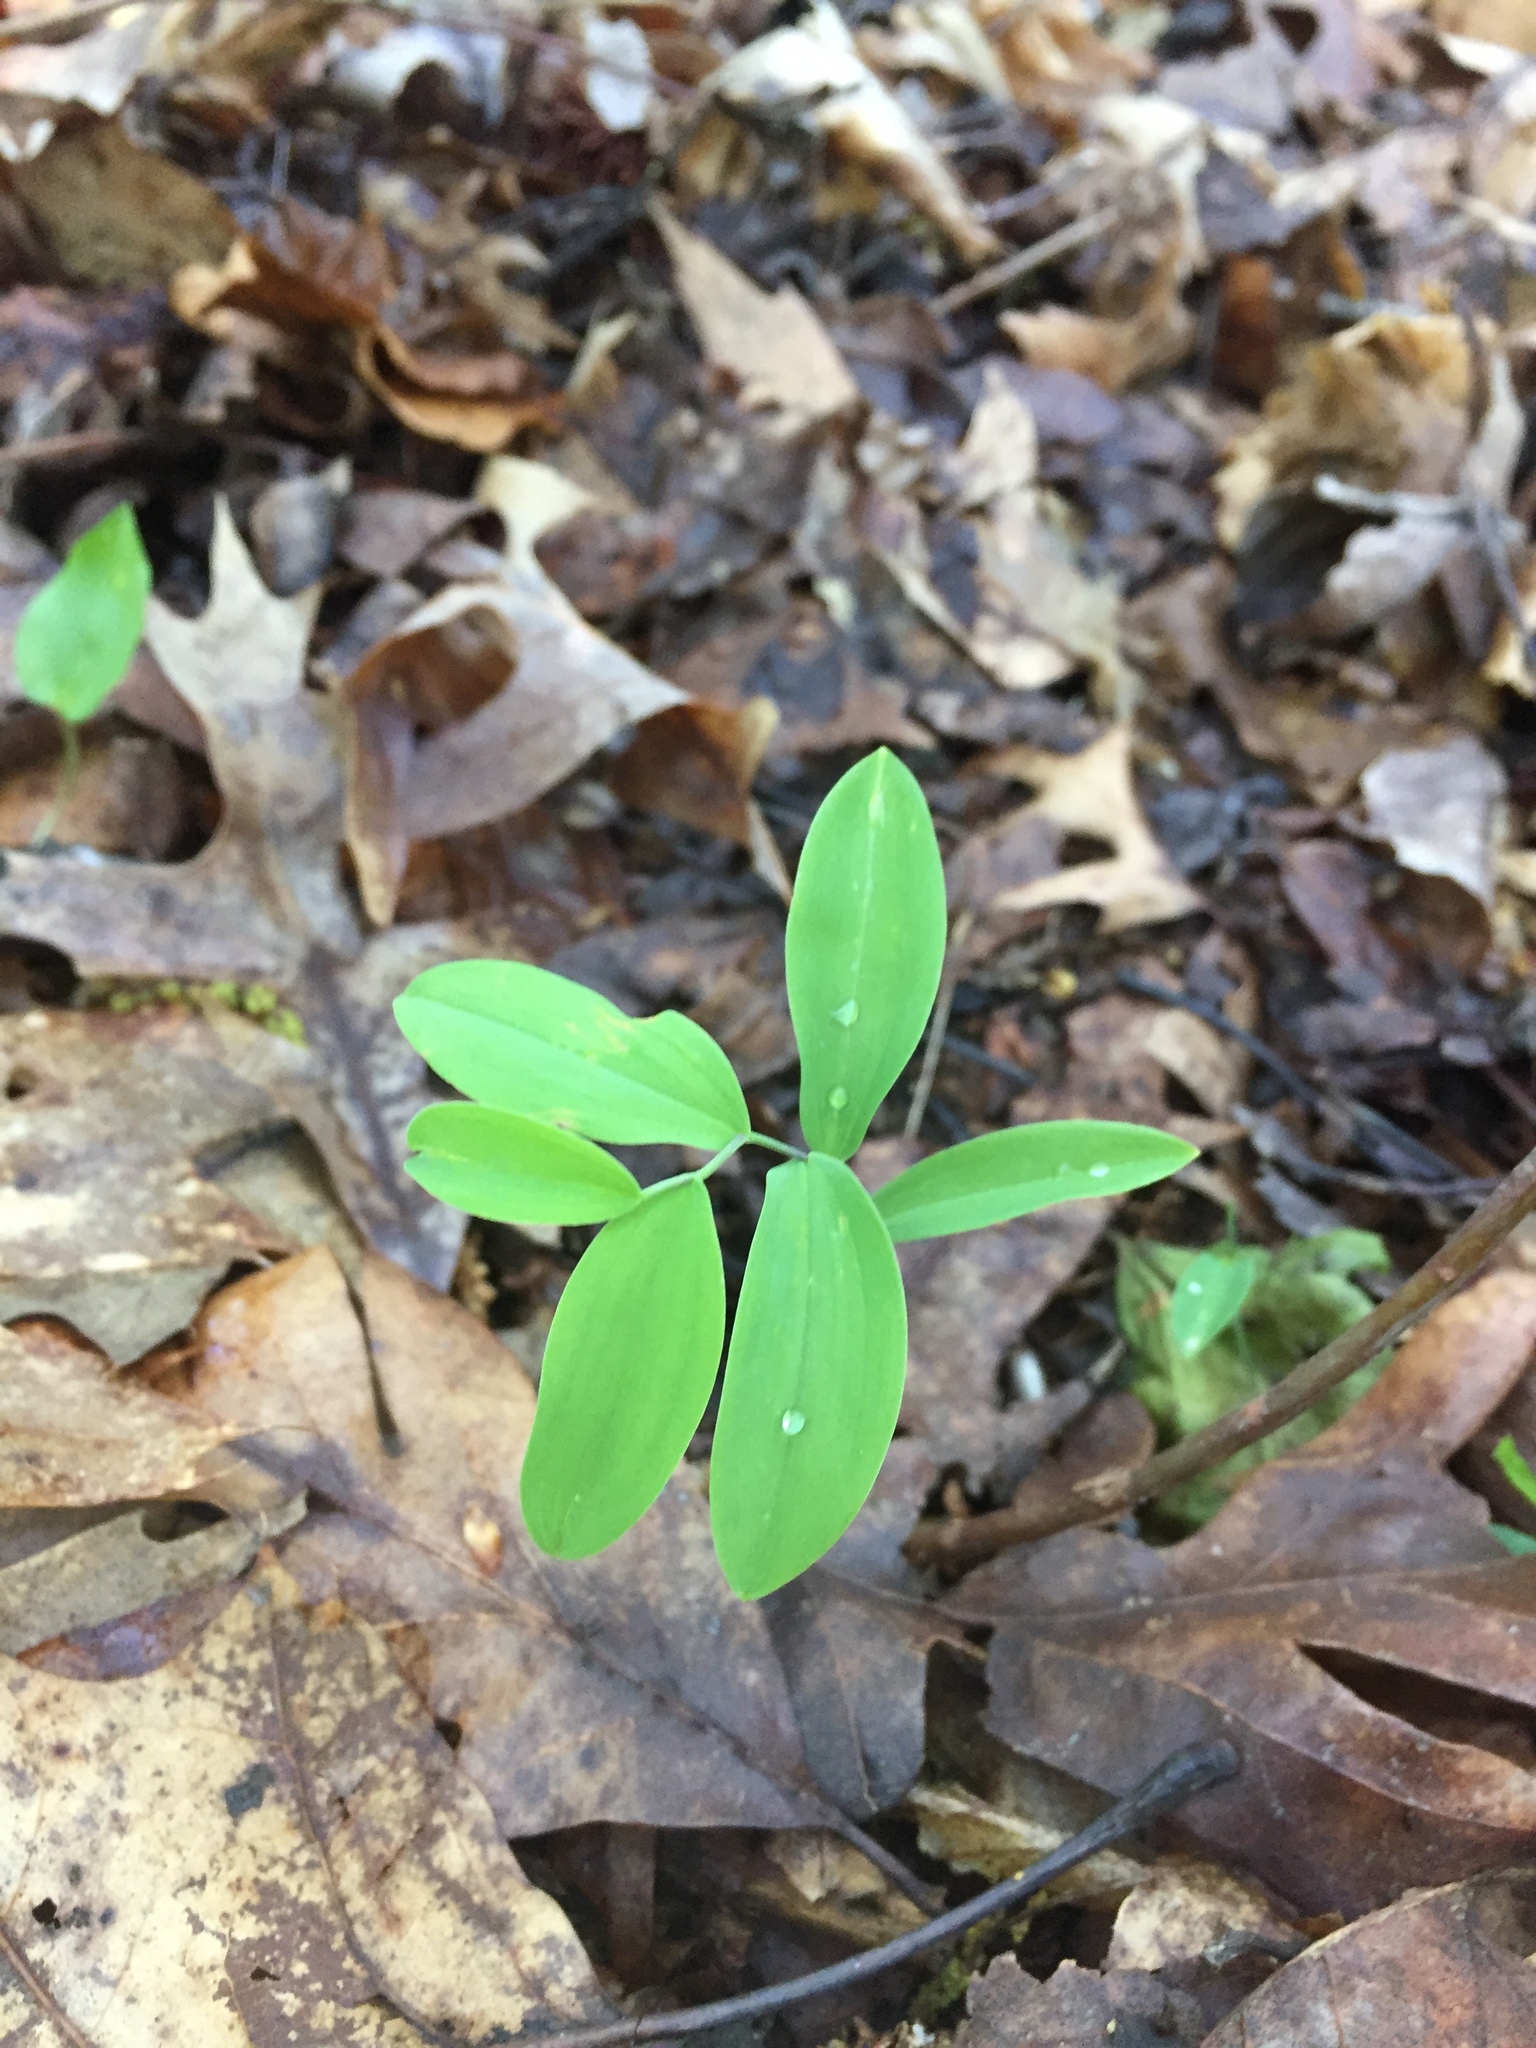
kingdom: Plantae
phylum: Tracheophyta
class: Liliopsida
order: Liliales
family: Colchicaceae
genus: Uvularia
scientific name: Uvularia sessilifolia
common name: Straw-lily
